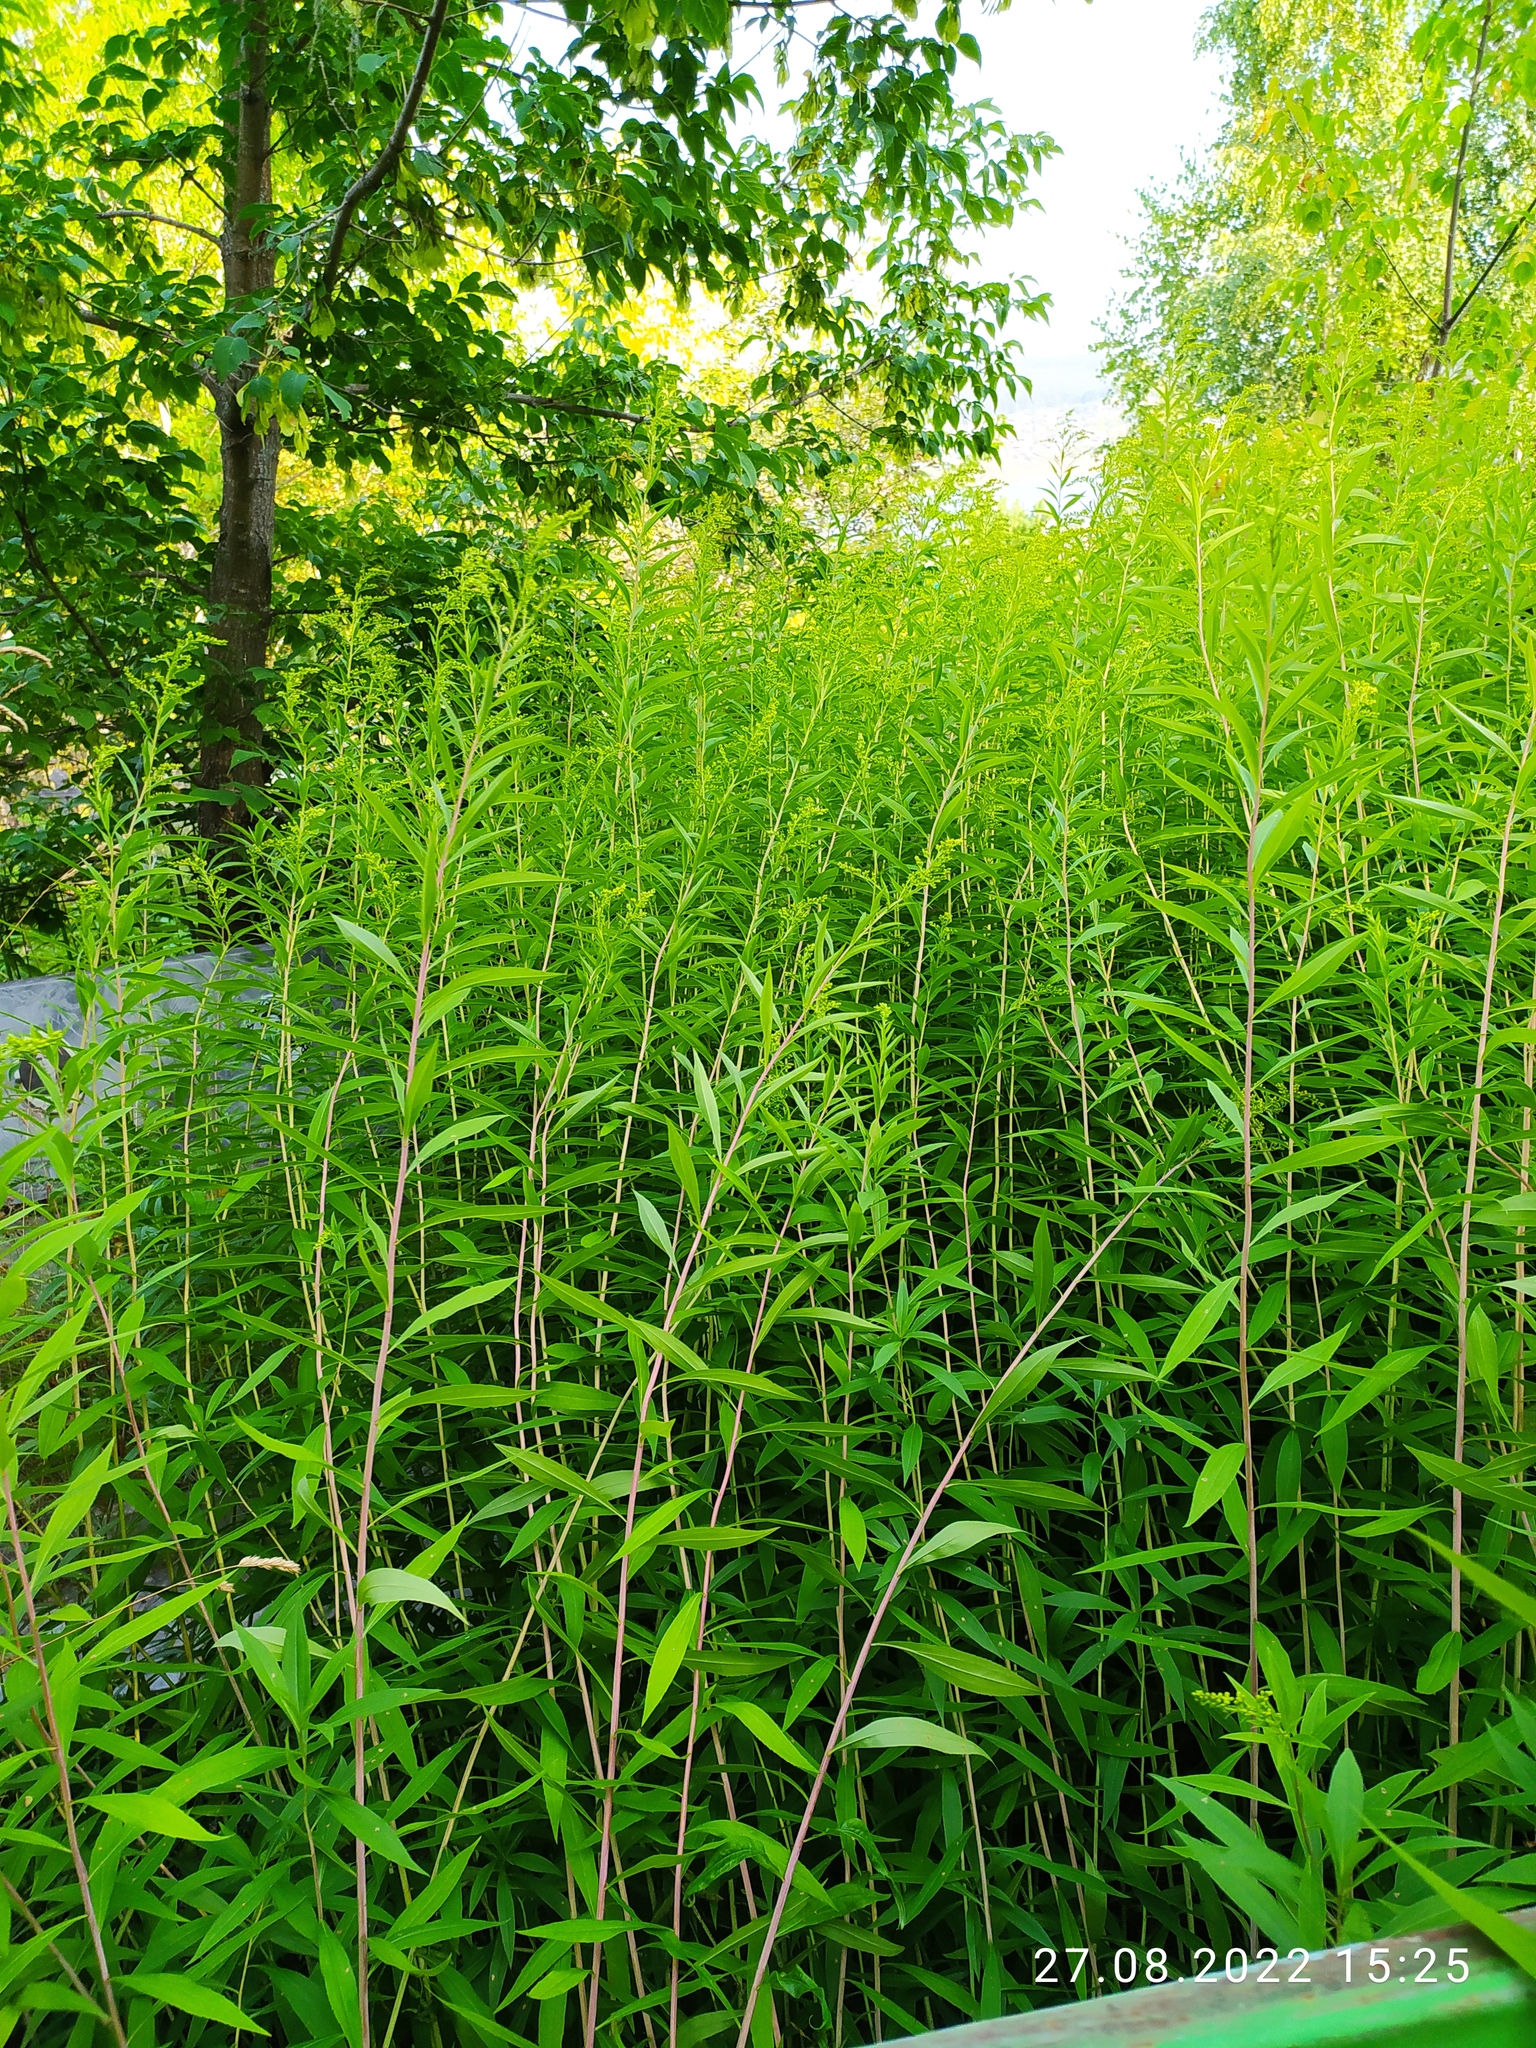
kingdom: Plantae
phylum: Tracheophyta
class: Magnoliopsida
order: Asterales
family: Asteraceae
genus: Solidago
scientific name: Solidago gigantea
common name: Giant goldenrod
